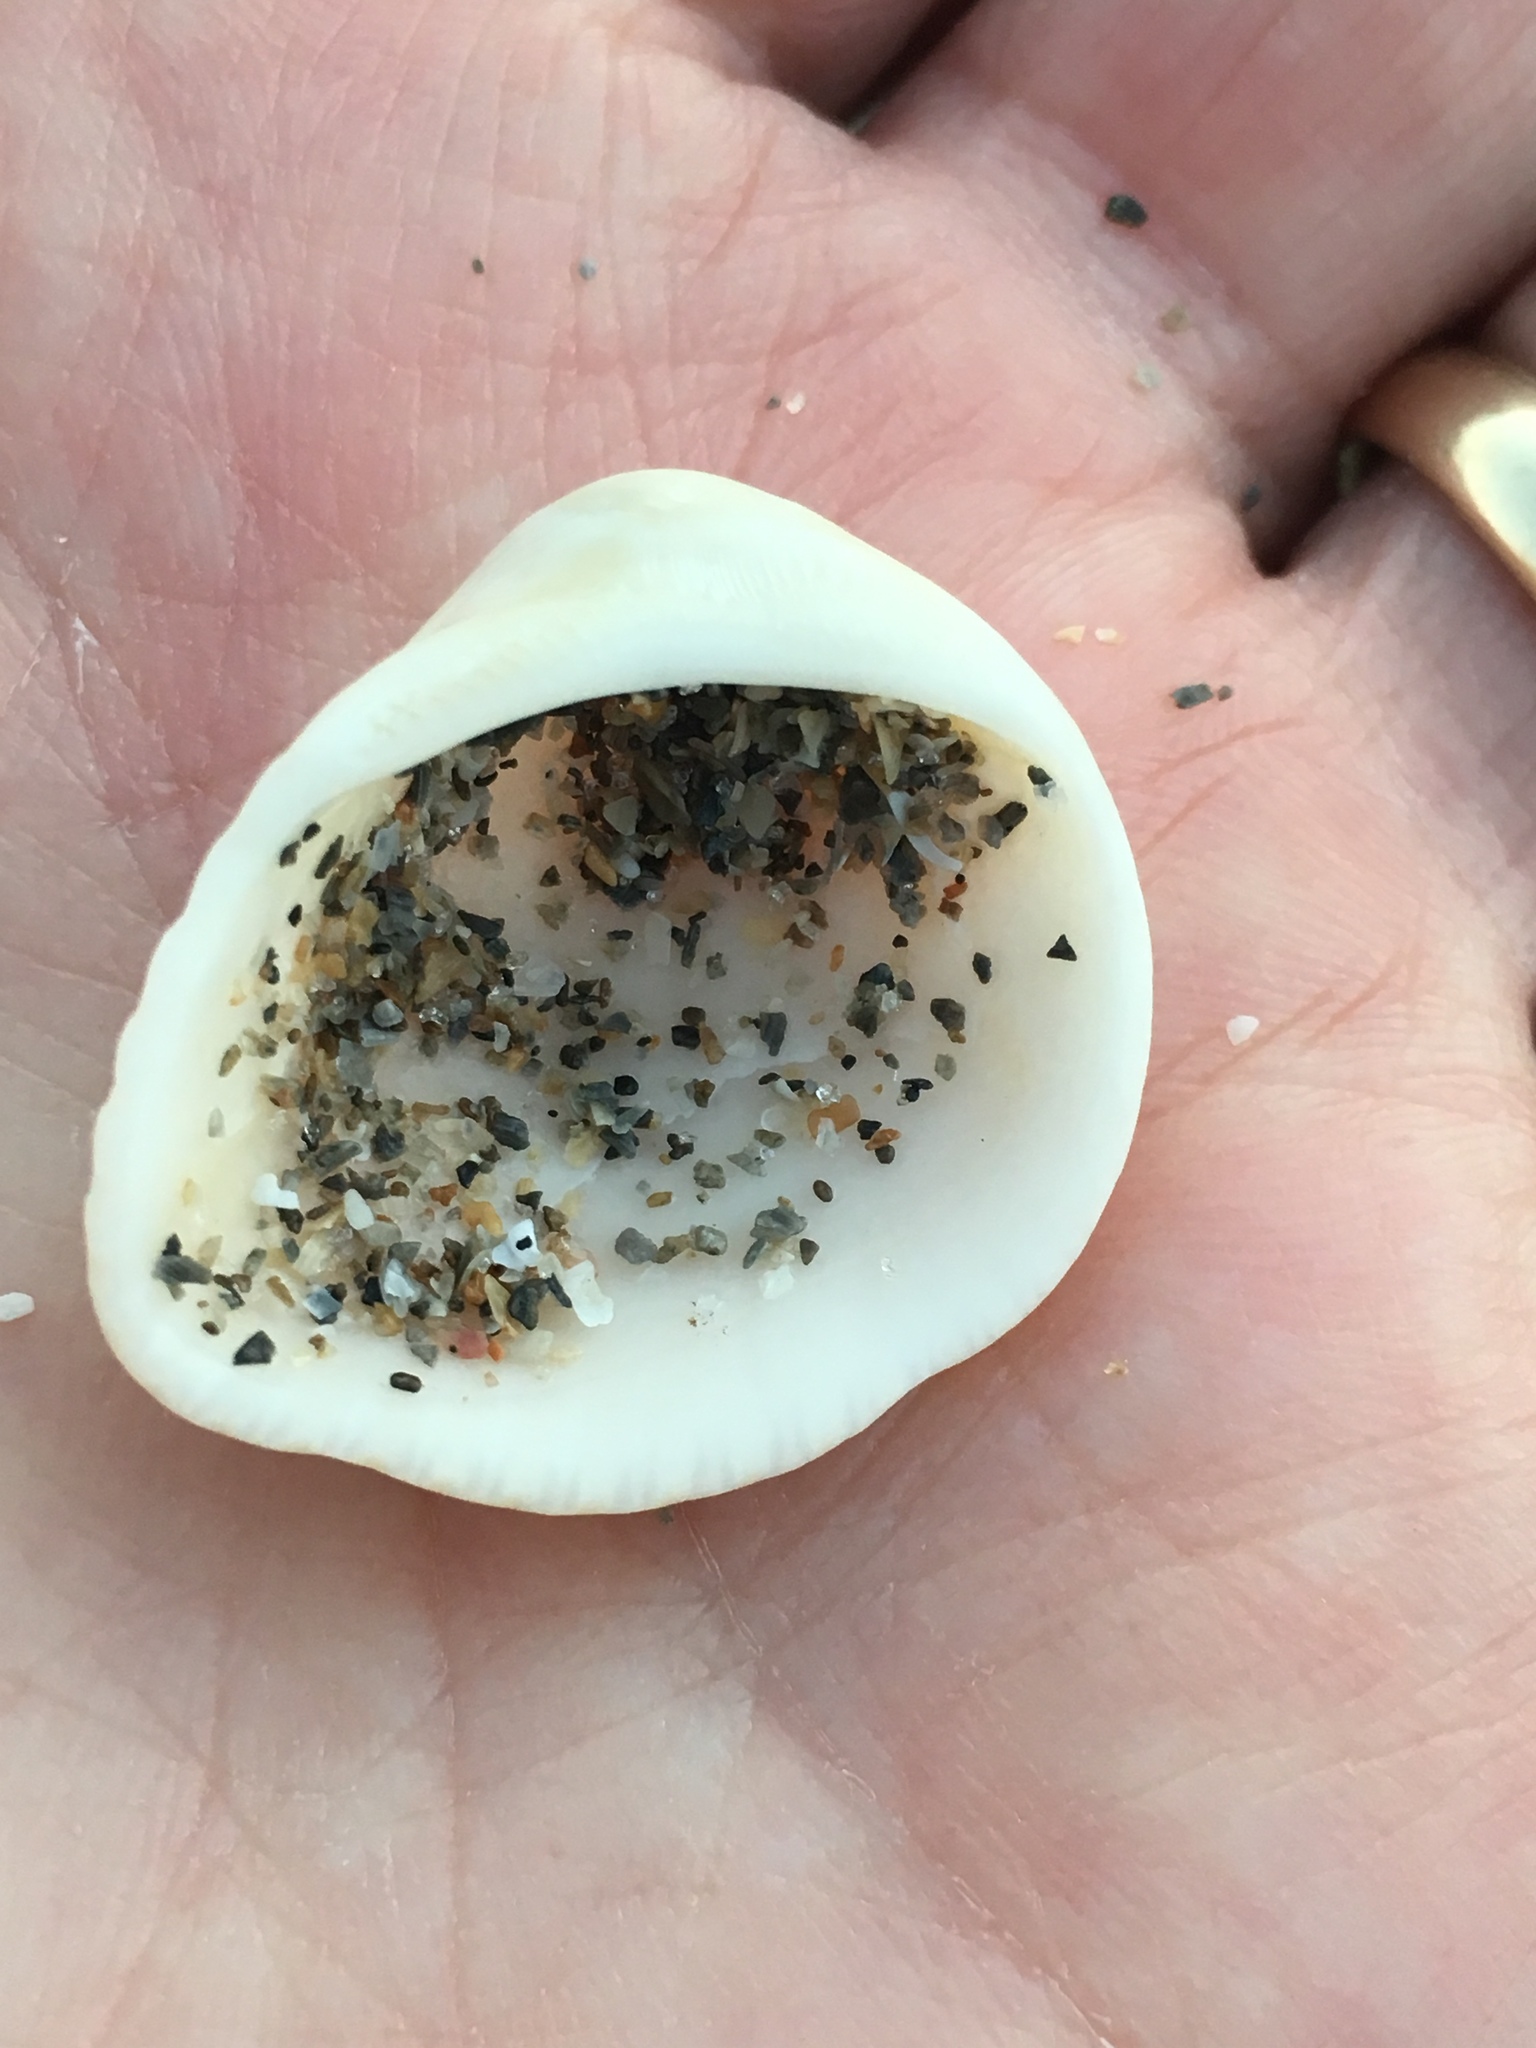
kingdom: Animalia
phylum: Mollusca
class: Bivalvia
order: Arcida
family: Noetiidae
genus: Noetia
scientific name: Noetia ponderosa
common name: Ponderous ark
